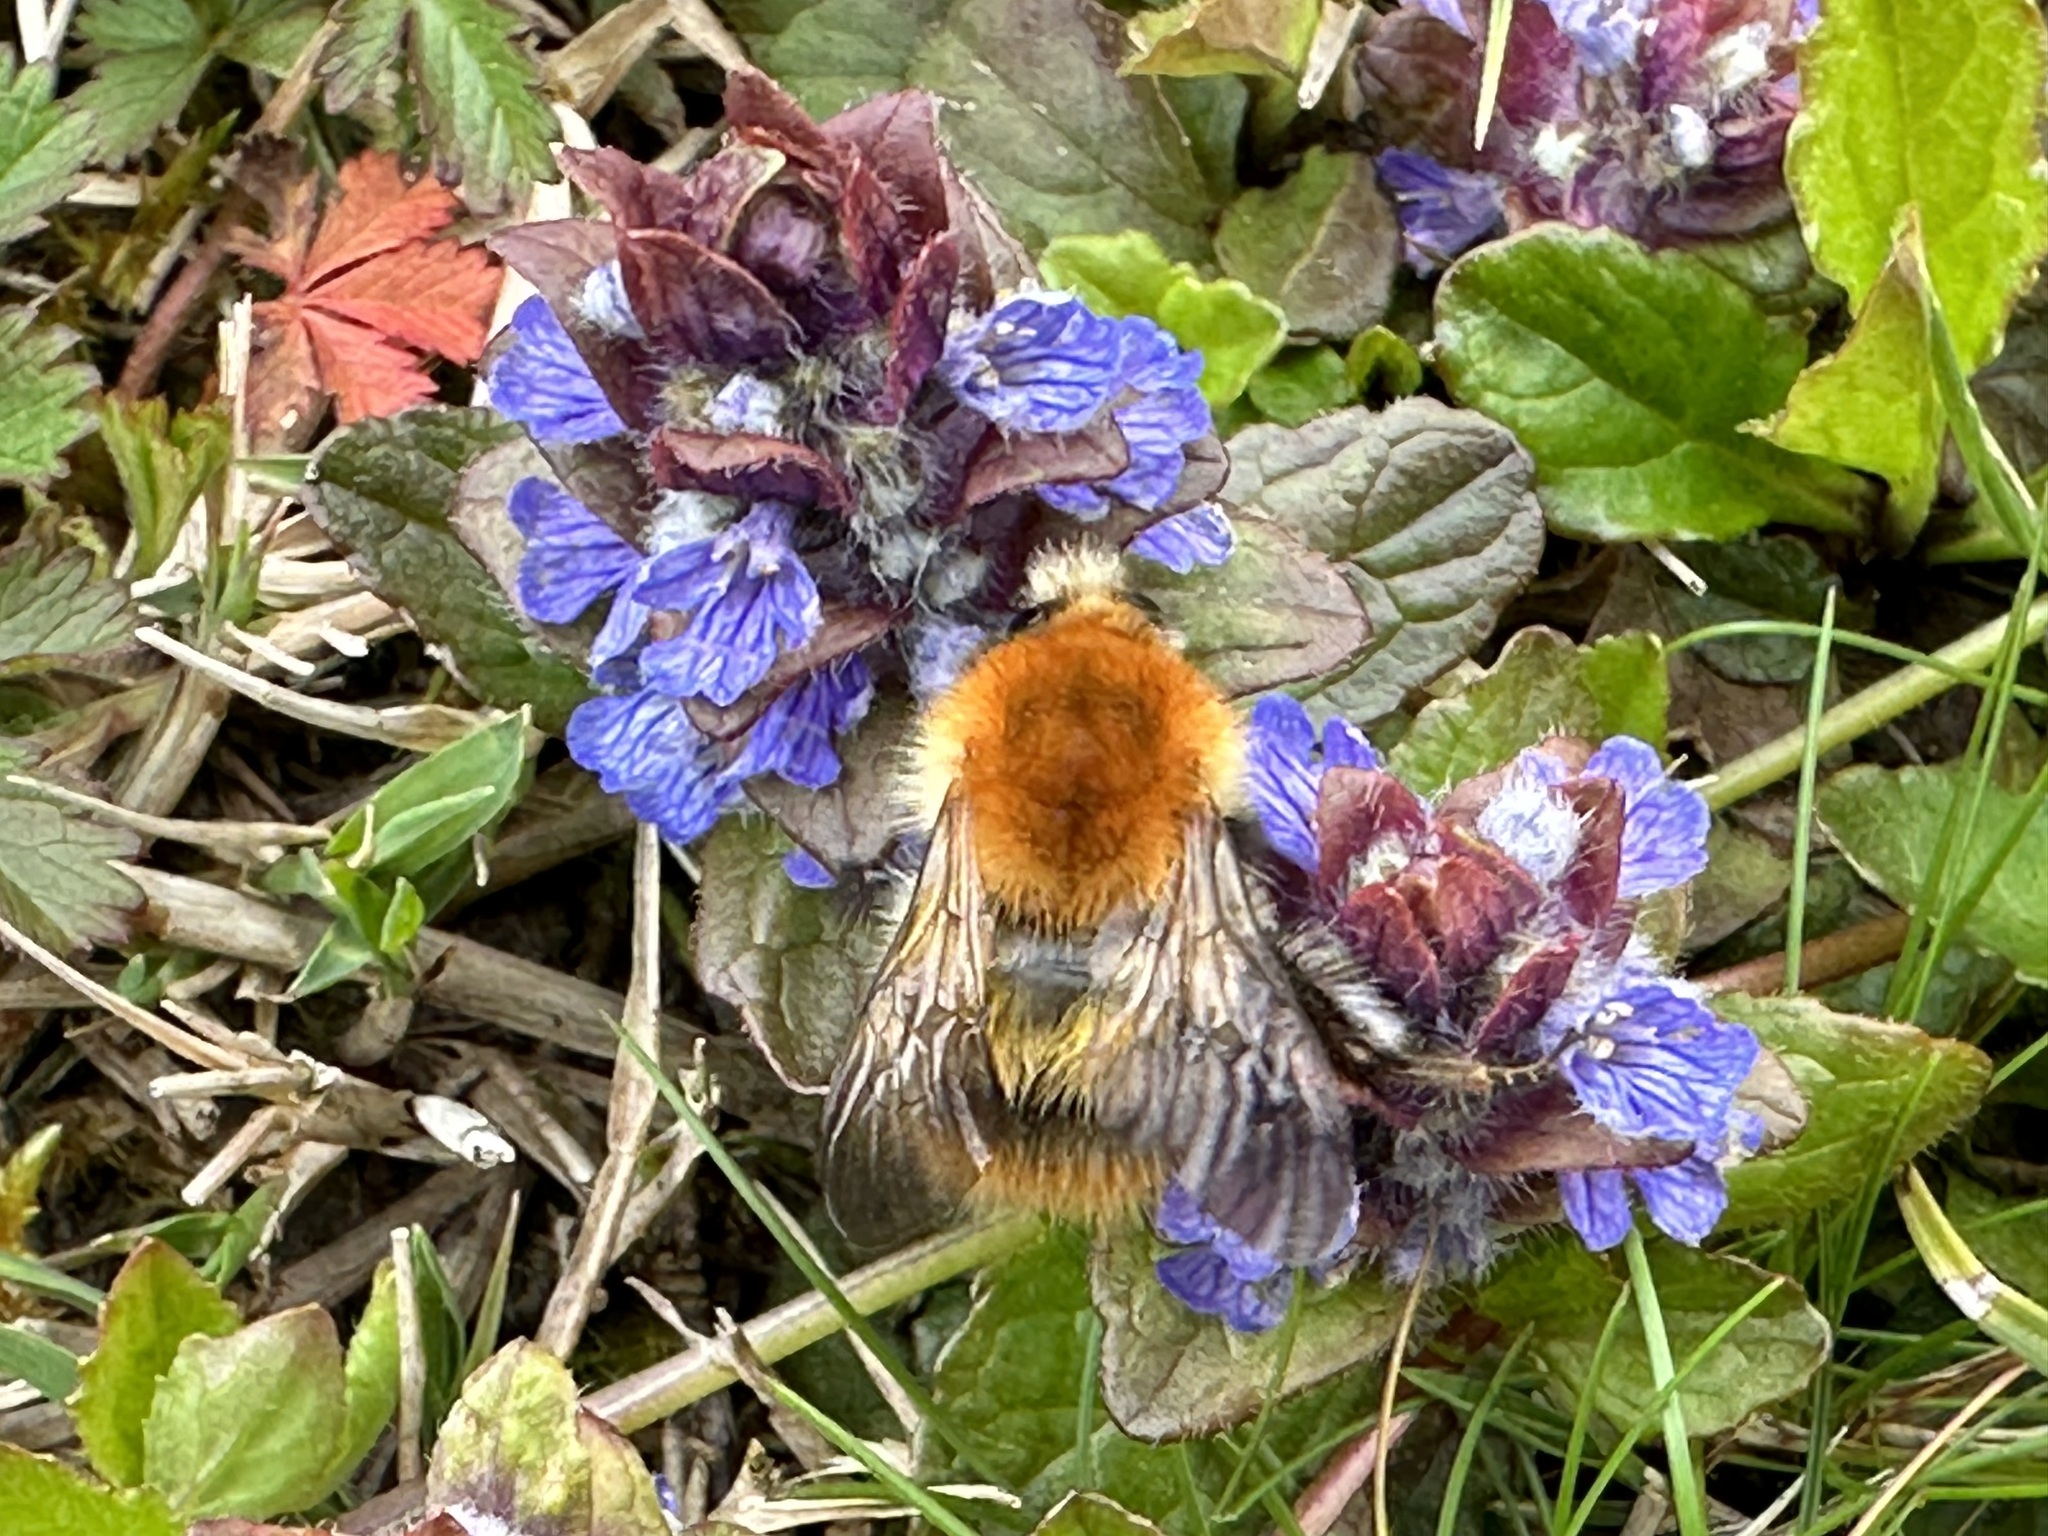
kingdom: Animalia
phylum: Arthropoda
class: Insecta
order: Hymenoptera
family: Apidae
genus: Bombus
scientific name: Bombus pascuorum
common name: Common carder bee
